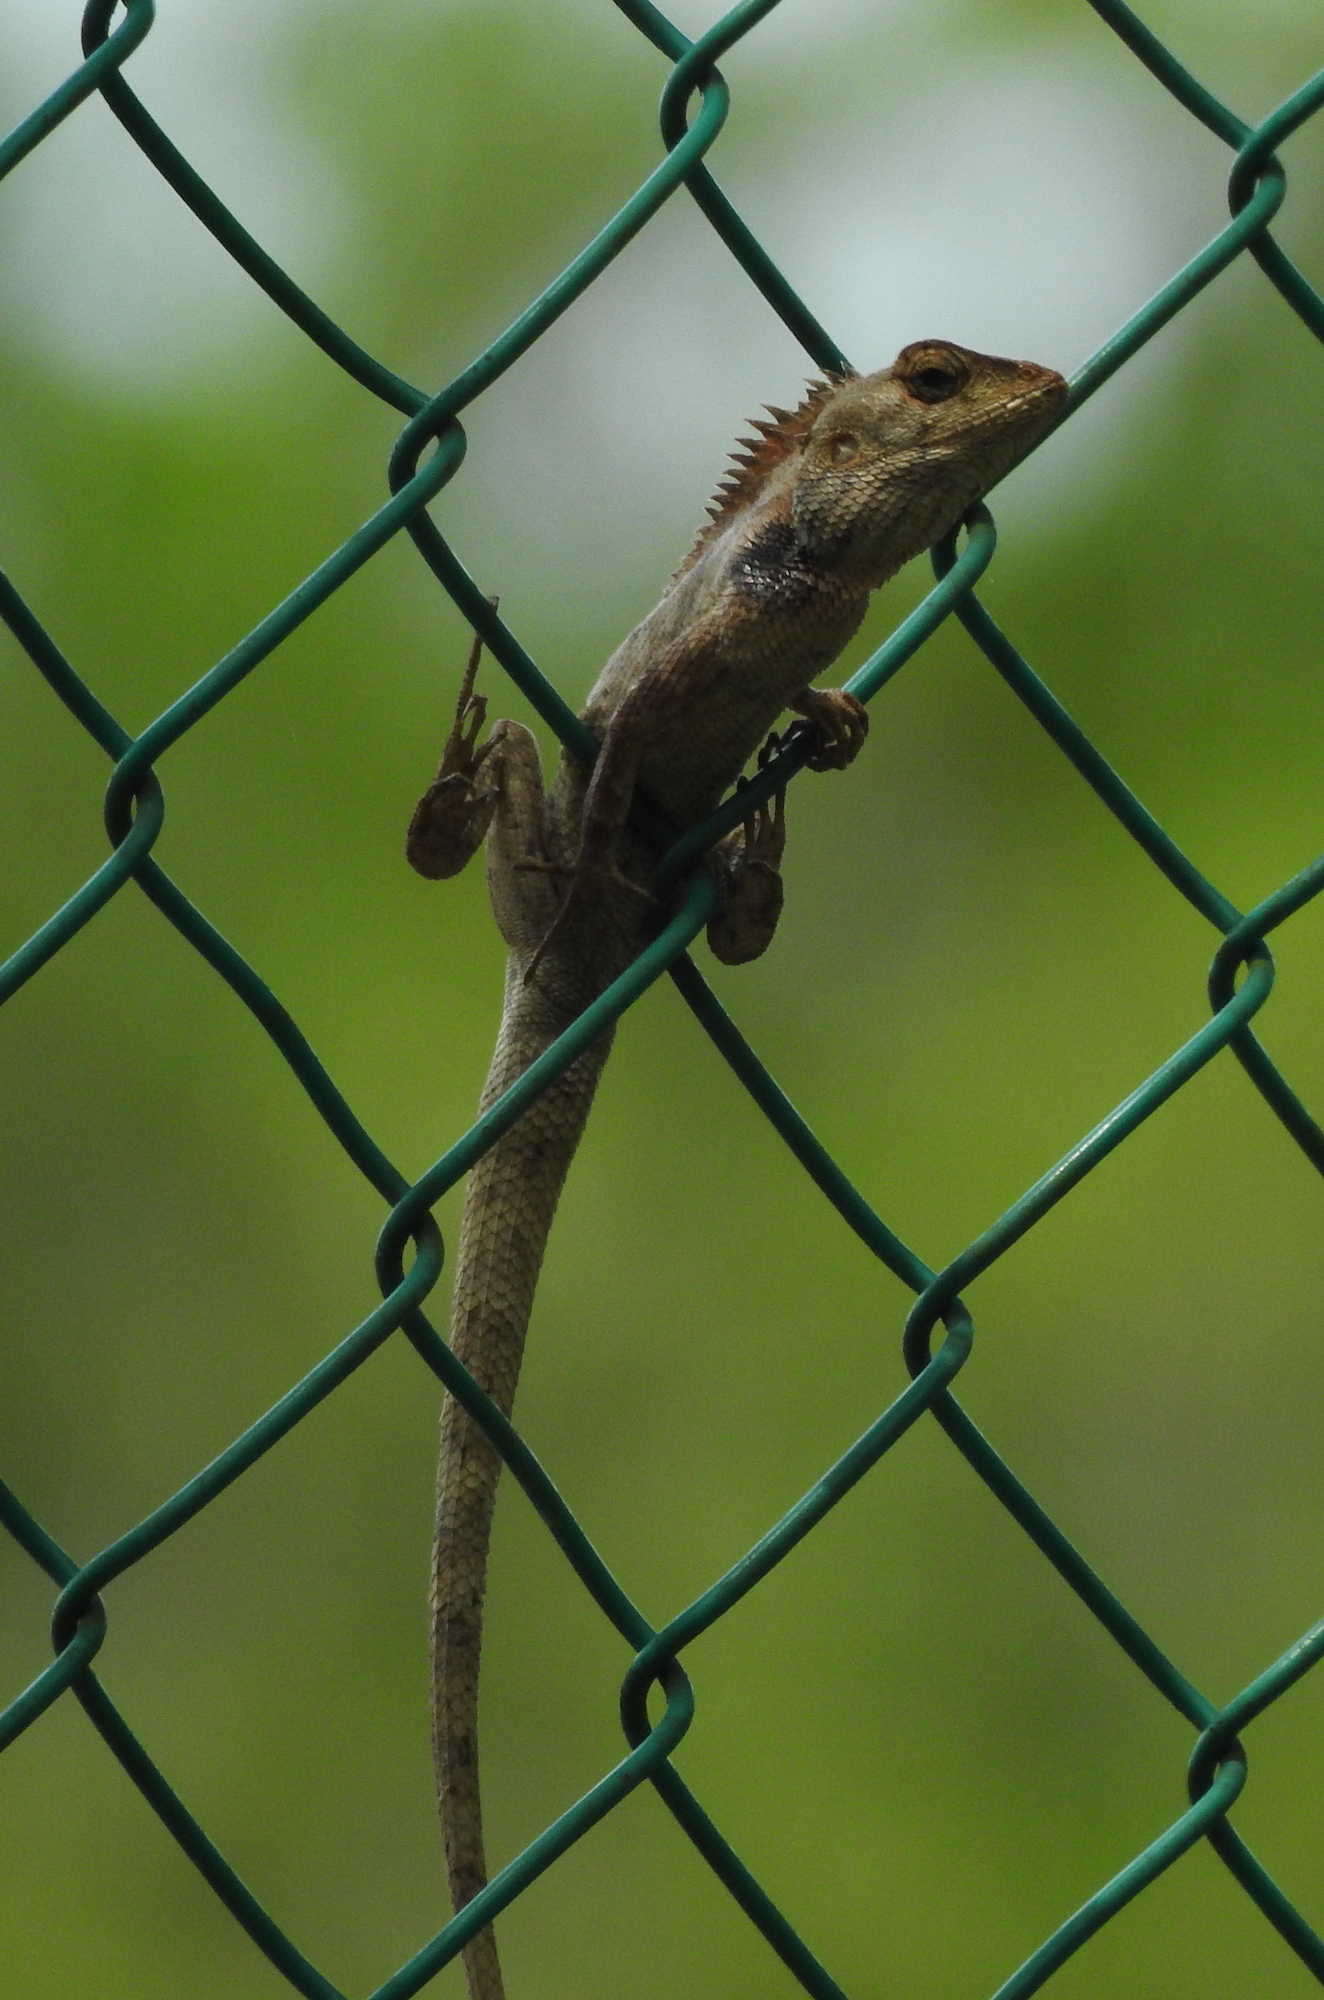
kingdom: Animalia
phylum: Chordata
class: Squamata
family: Agamidae
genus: Calotes
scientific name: Calotes versicolor
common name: Oriental garden lizard
